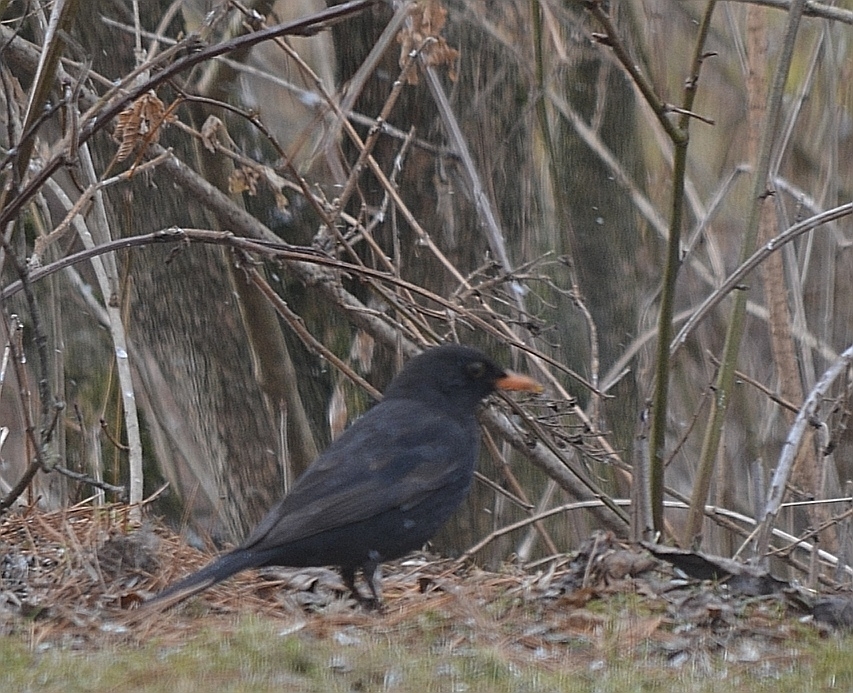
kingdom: Animalia
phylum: Chordata
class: Aves
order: Passeriformes
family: Turdidae
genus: Turdus
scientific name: Turdus merula
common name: Common blackbird
